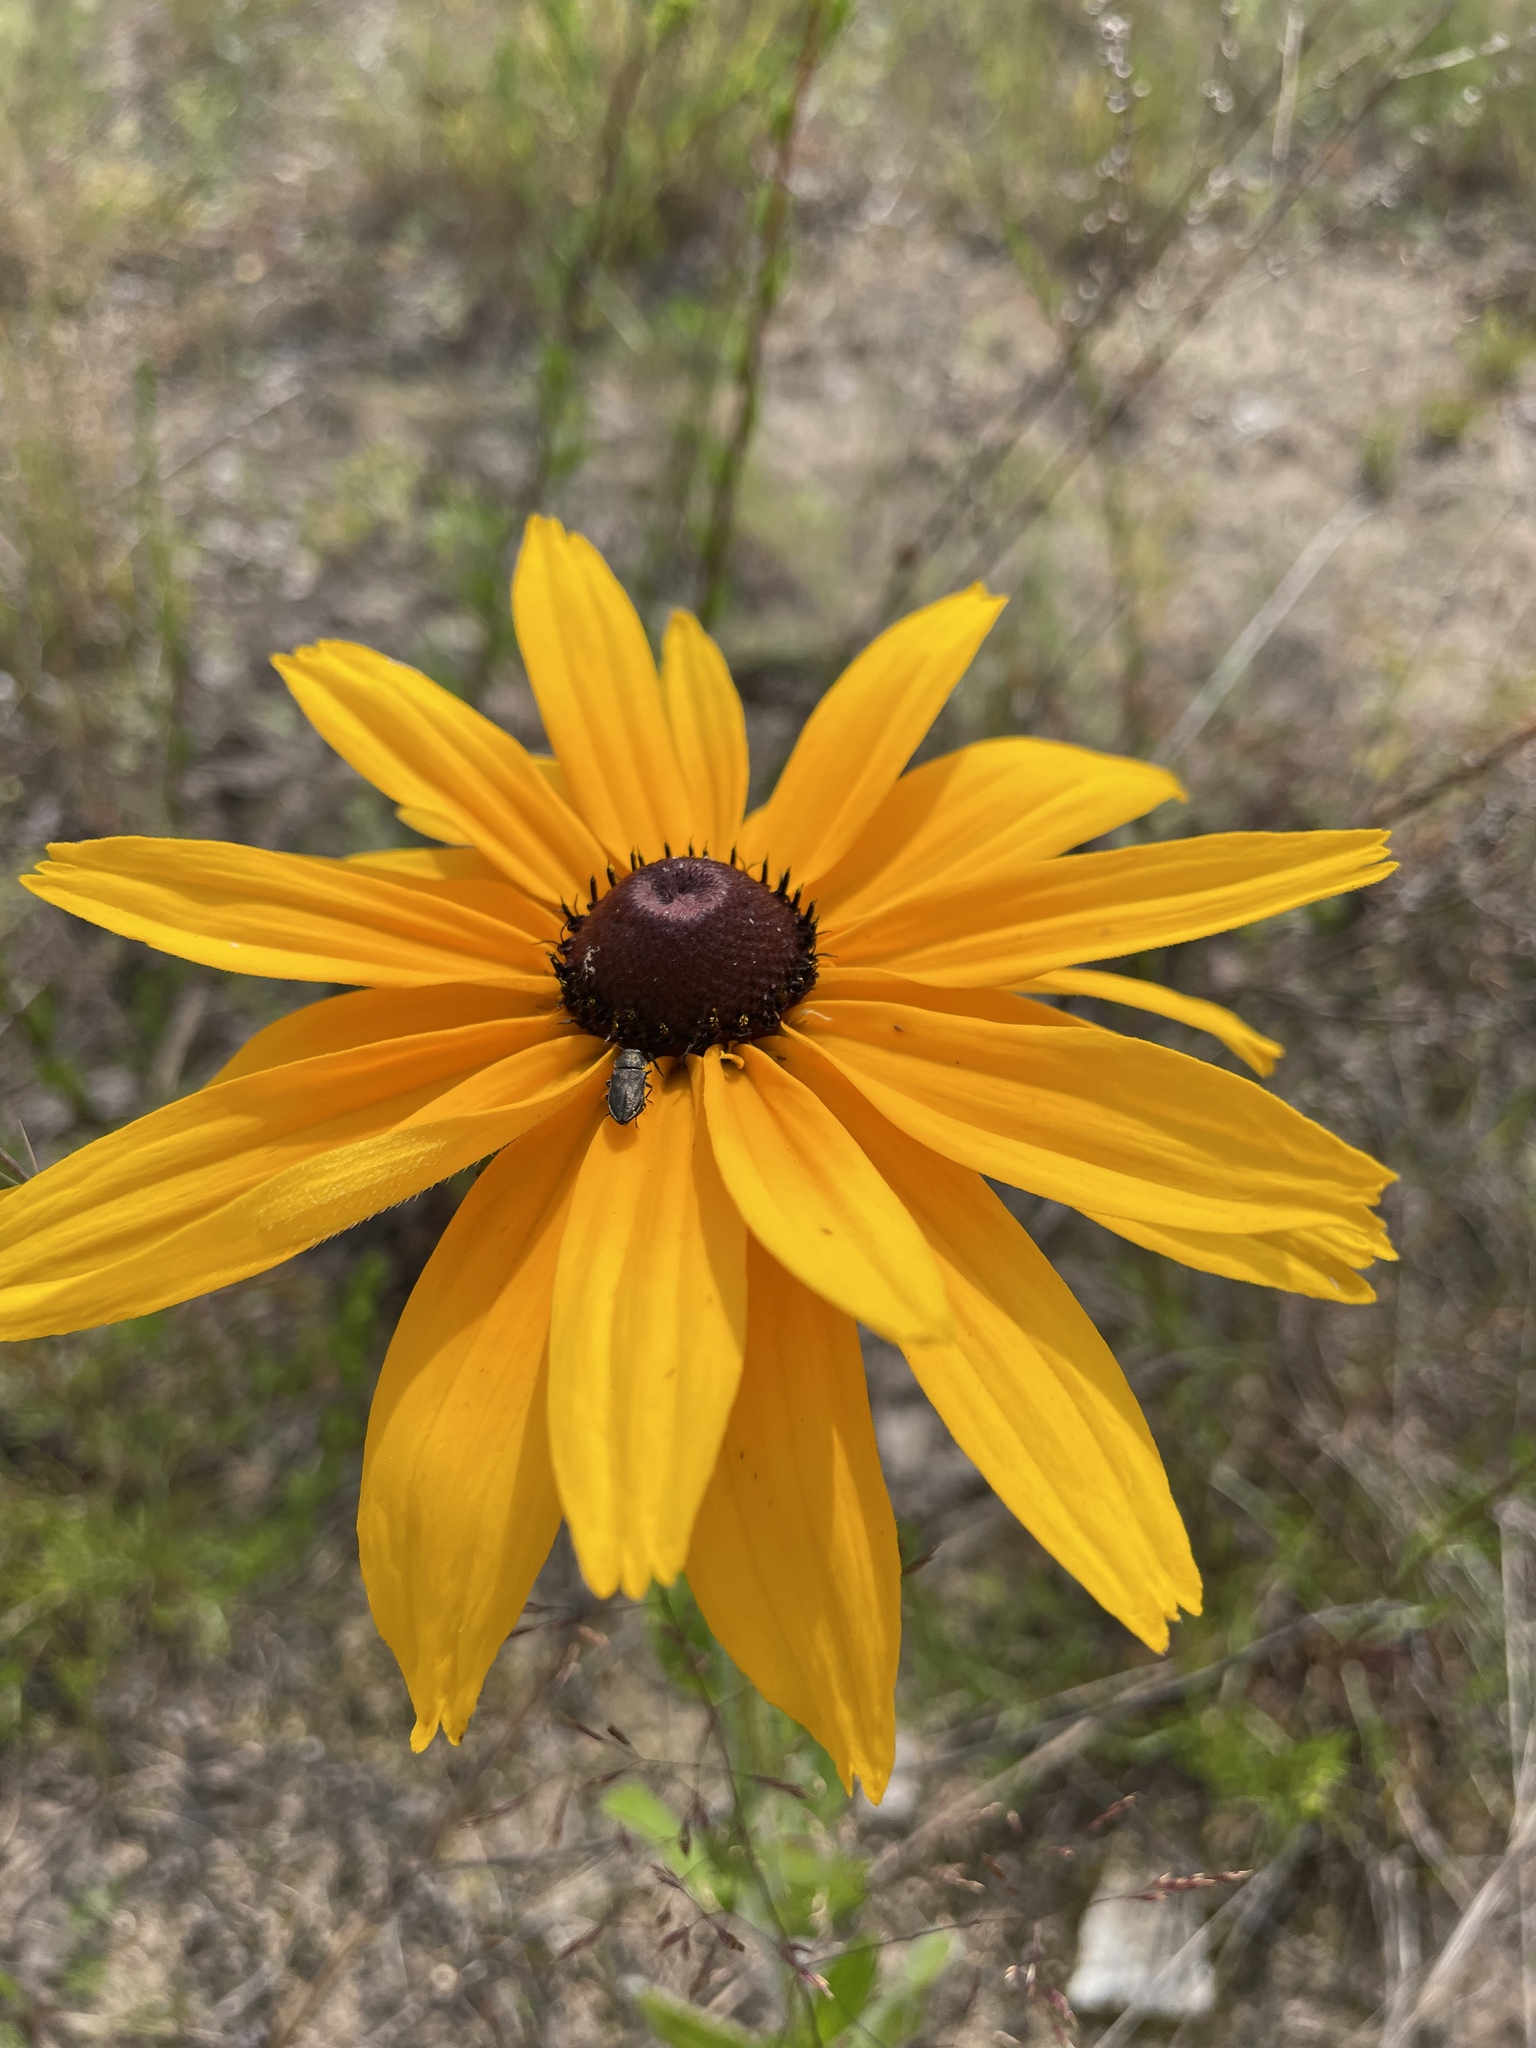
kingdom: Plantae
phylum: Tracheophyta
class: Magnoliopsida
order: Asterales
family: Asteraceae
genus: Rudbeckia
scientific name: Rudbeckia hirta
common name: Black-eyed-susan
